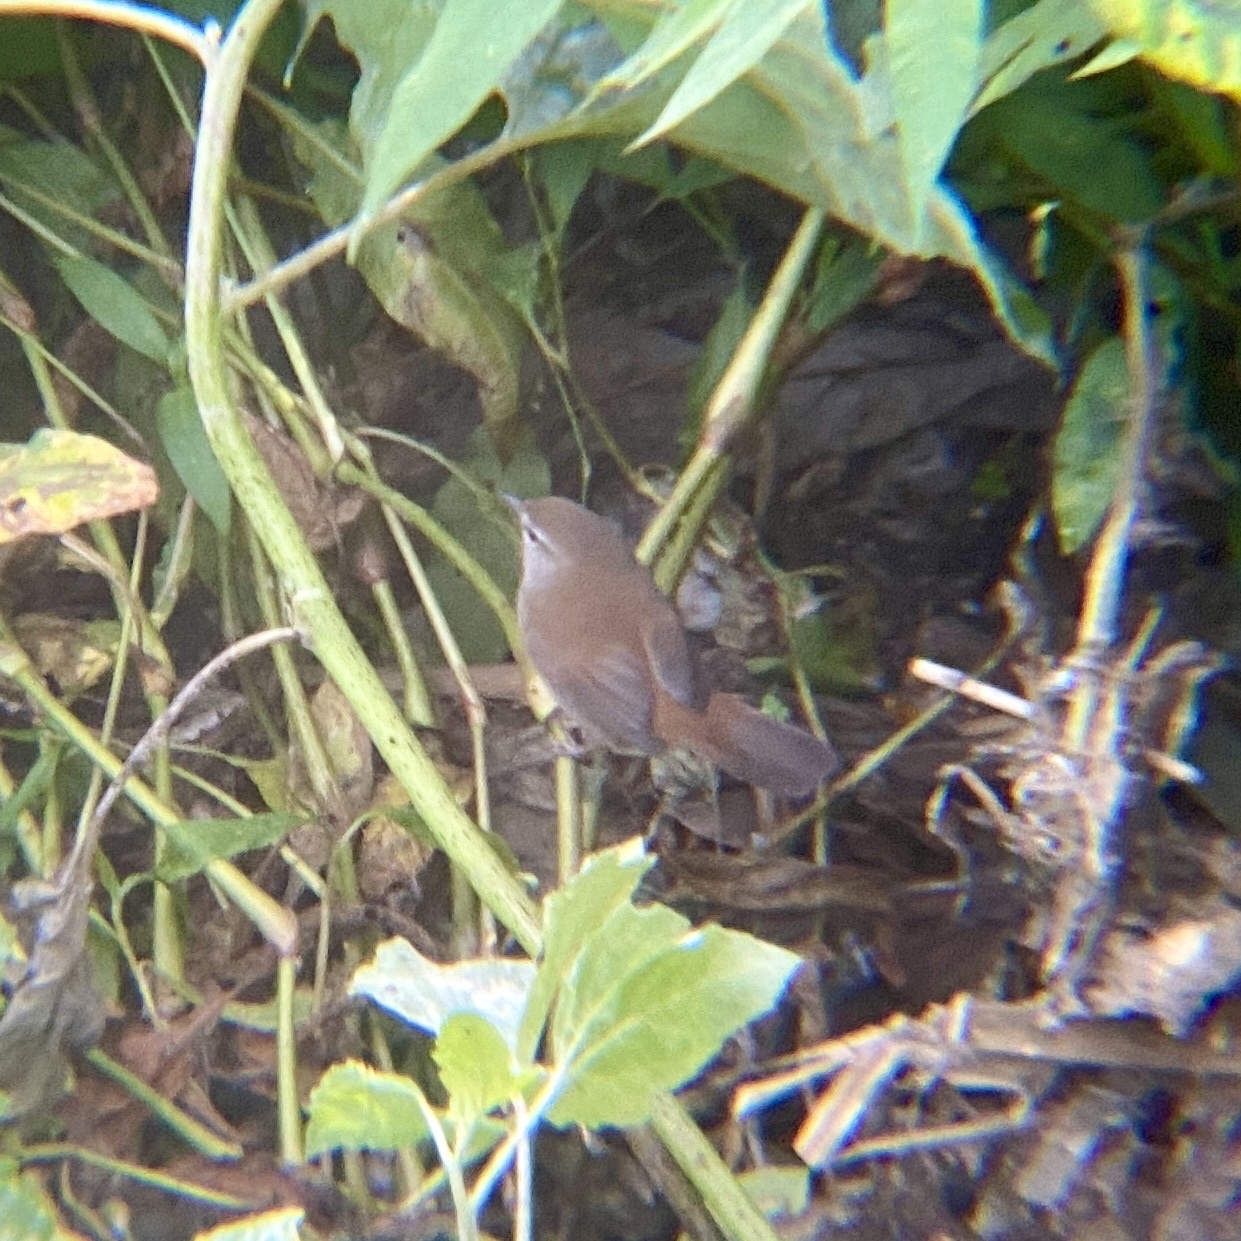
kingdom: Animalia
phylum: Chordata
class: Aves
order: Passeriformes
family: Cettiidae
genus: Cettia
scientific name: Cettia cetti
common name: Cetti's warbler
